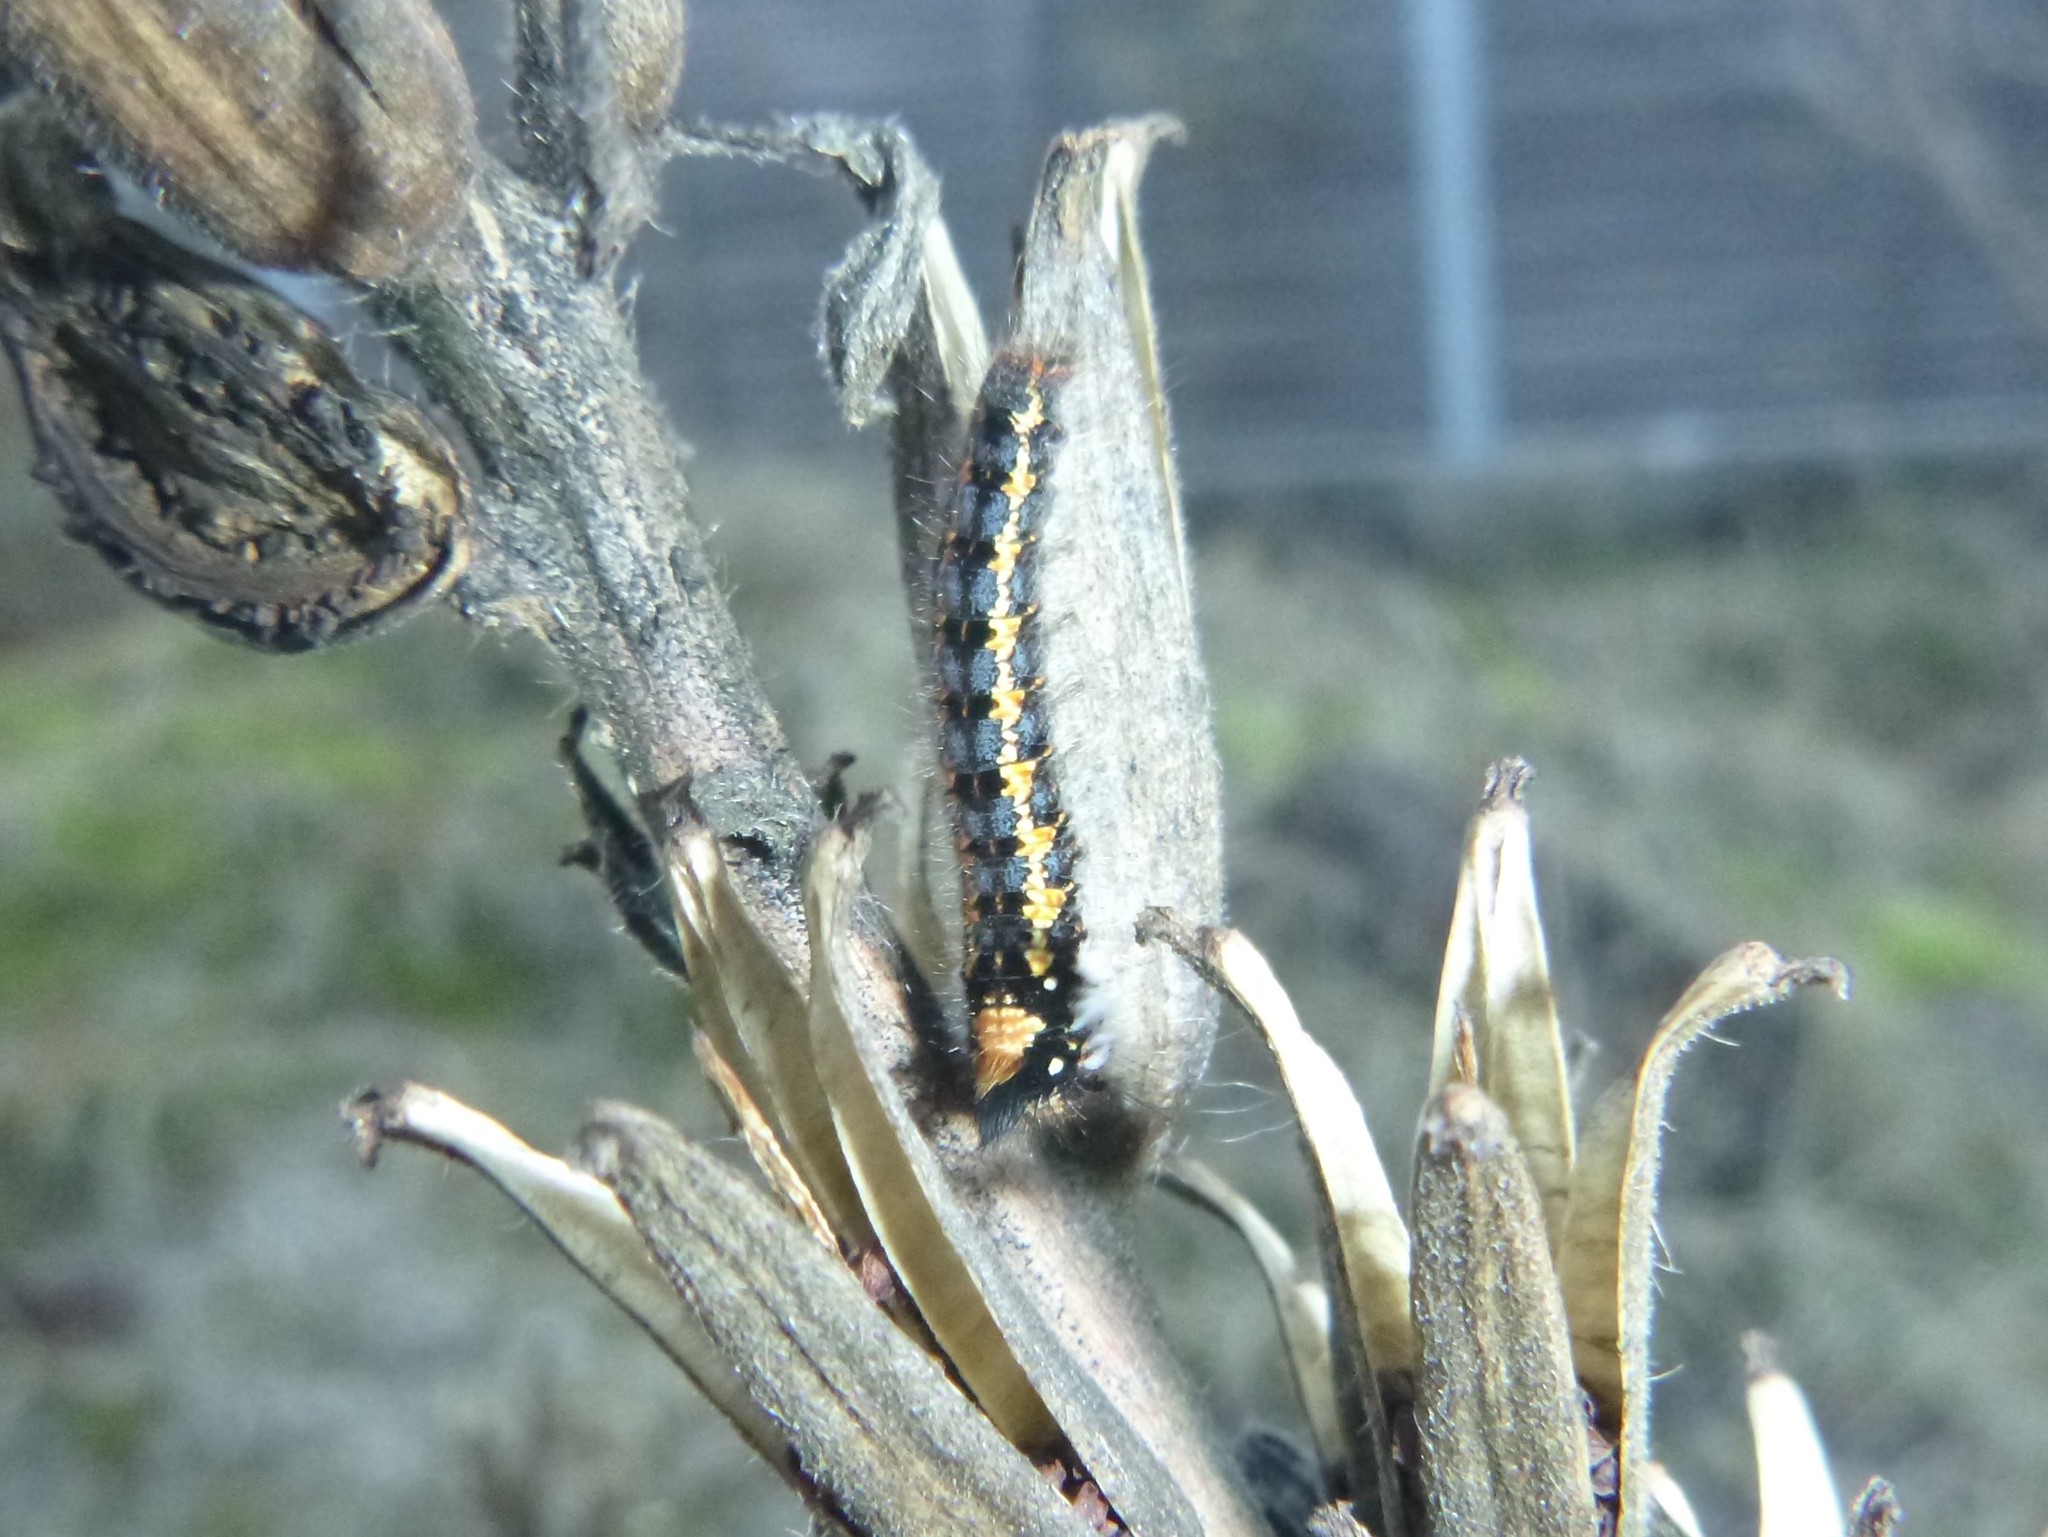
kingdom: Animalia
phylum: Arthropoda
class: Insecta
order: Lepidoptera
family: Lasiocampidae
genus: Euthrix
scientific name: Euthrix potatoria
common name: Drinker
